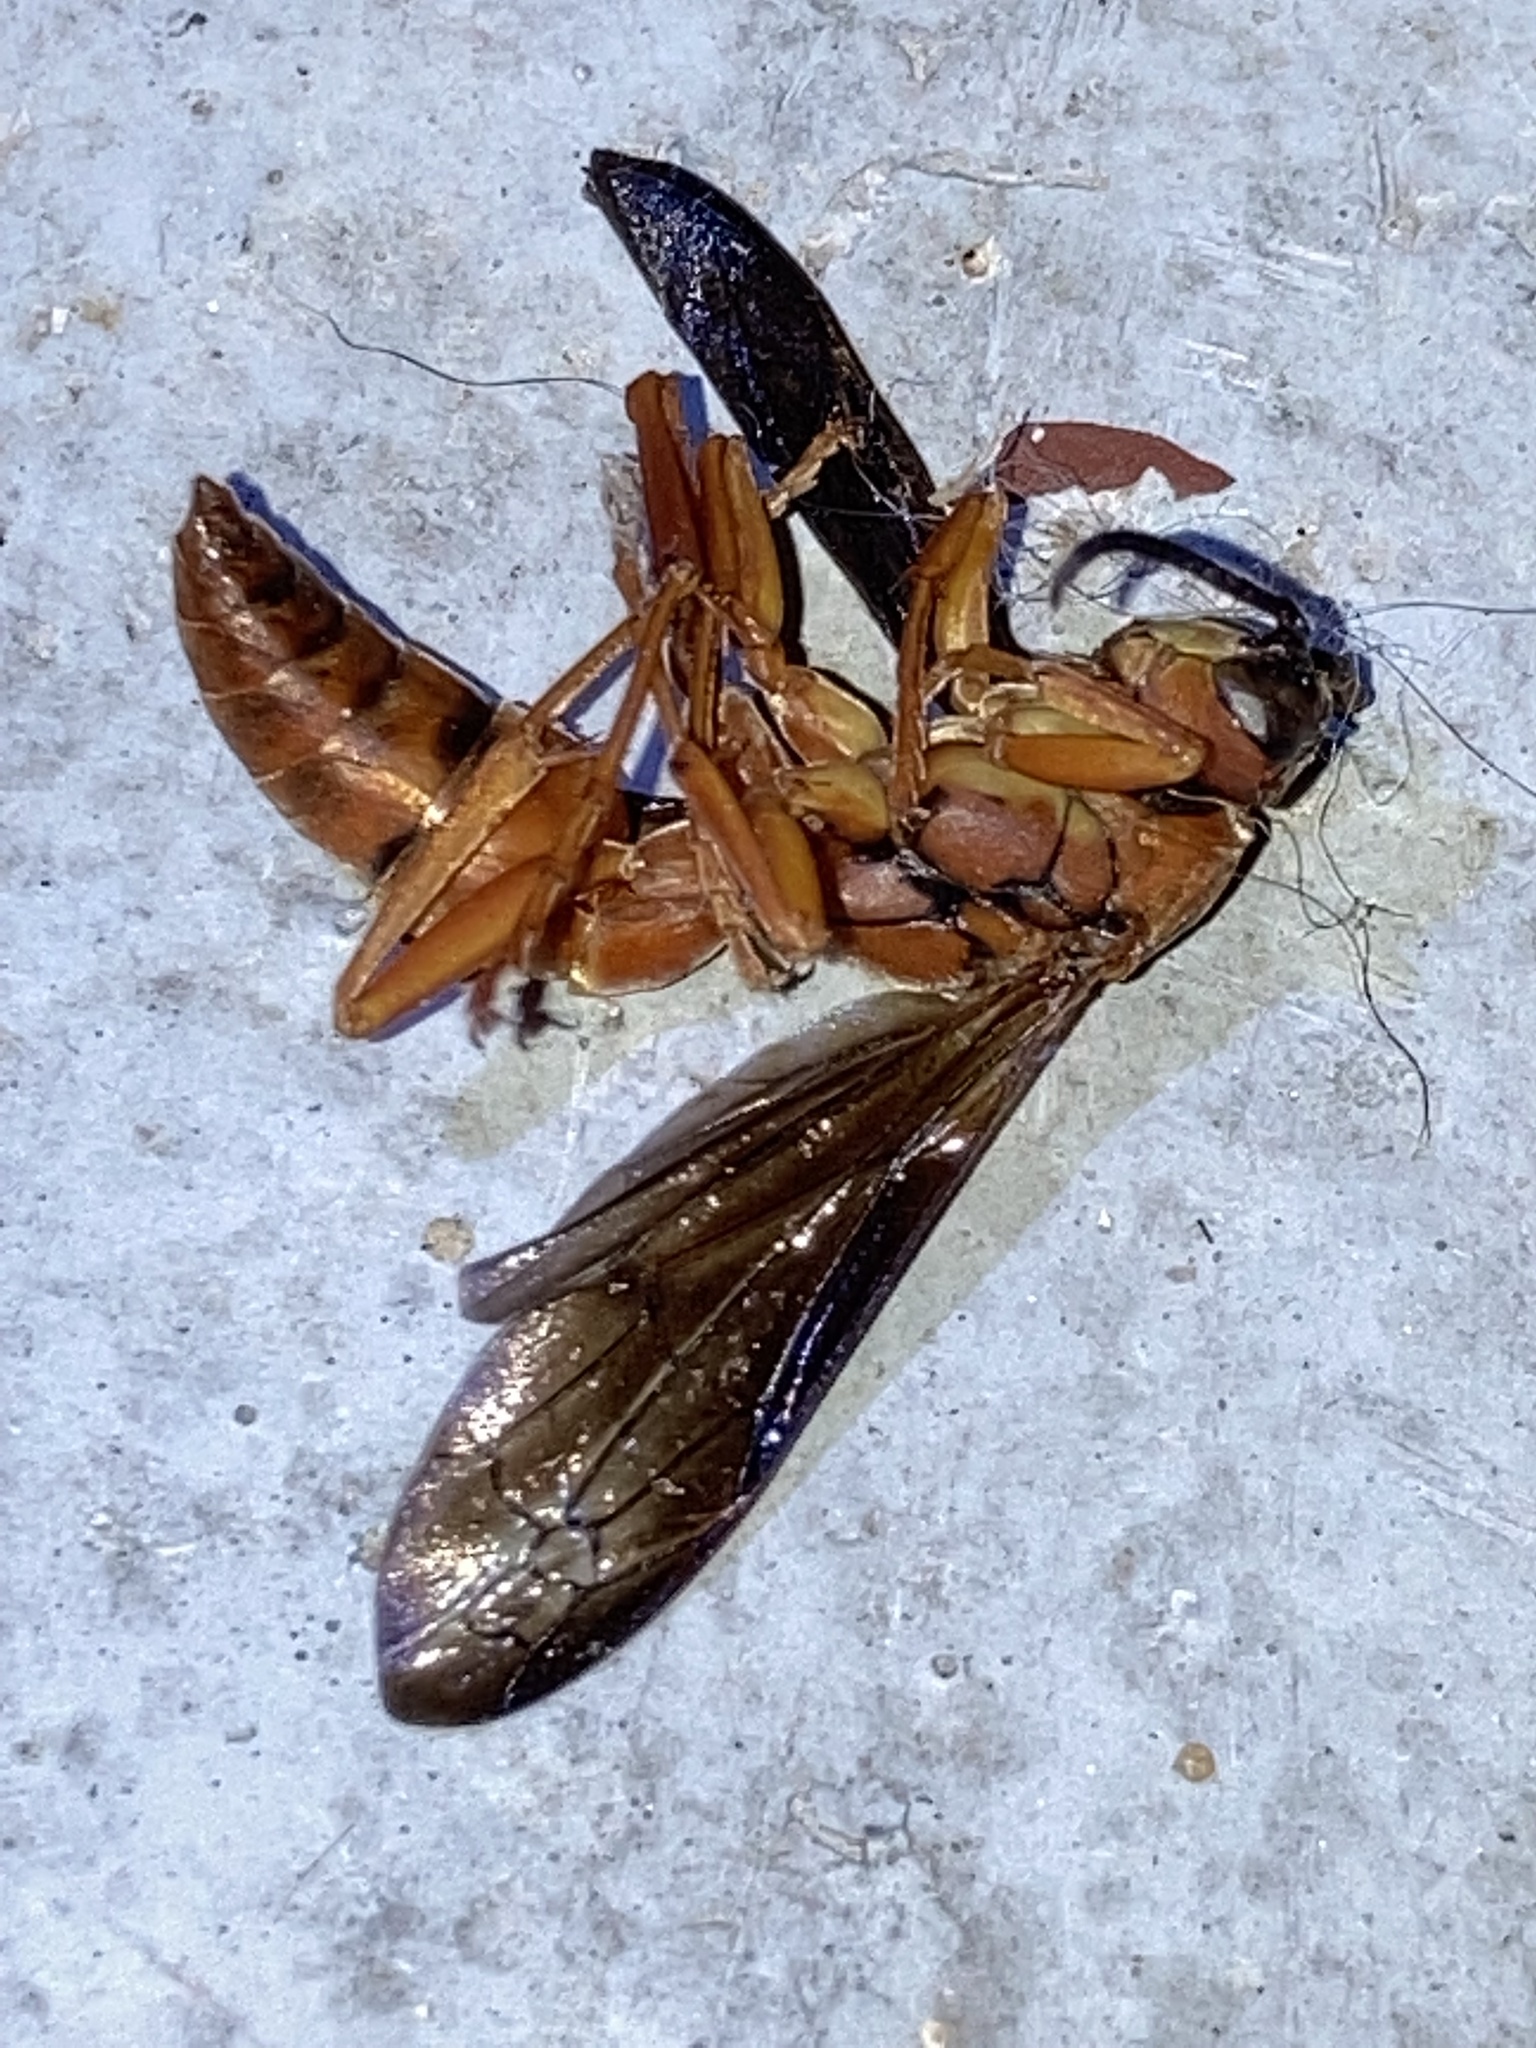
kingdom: Animalia
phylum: Arthropoda
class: Insecta
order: Hymenoptera
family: Eumenidae
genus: Polistes
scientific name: Polistes carolina
